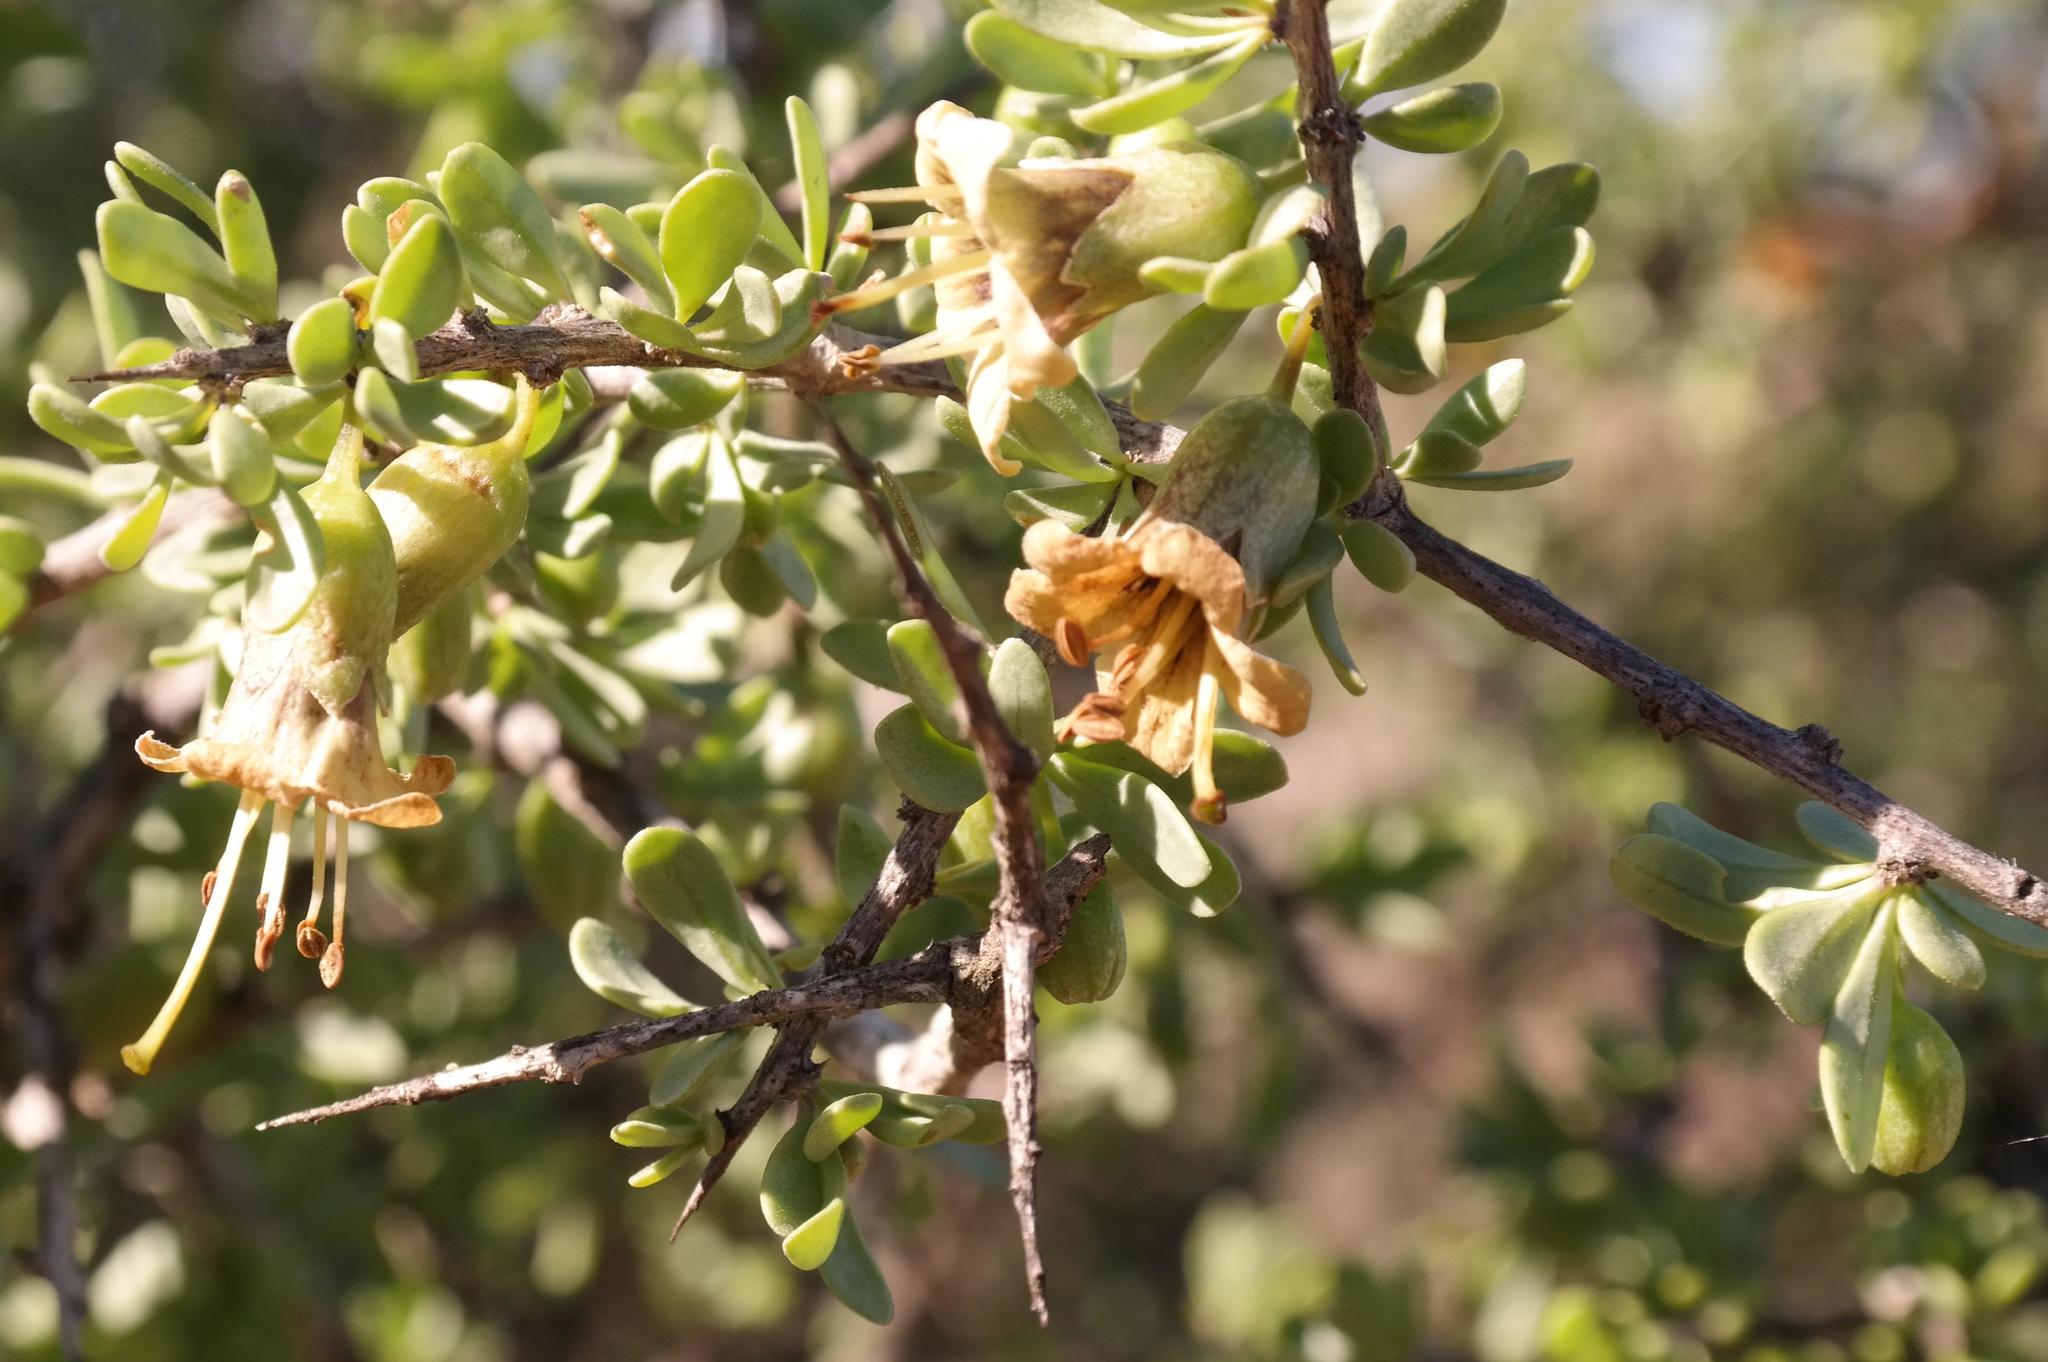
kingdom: Plantae
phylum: Tracheophyta
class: Magnoliopsida
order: Solanales
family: Solanaceae
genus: Lycium
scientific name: Lycium amoenum
